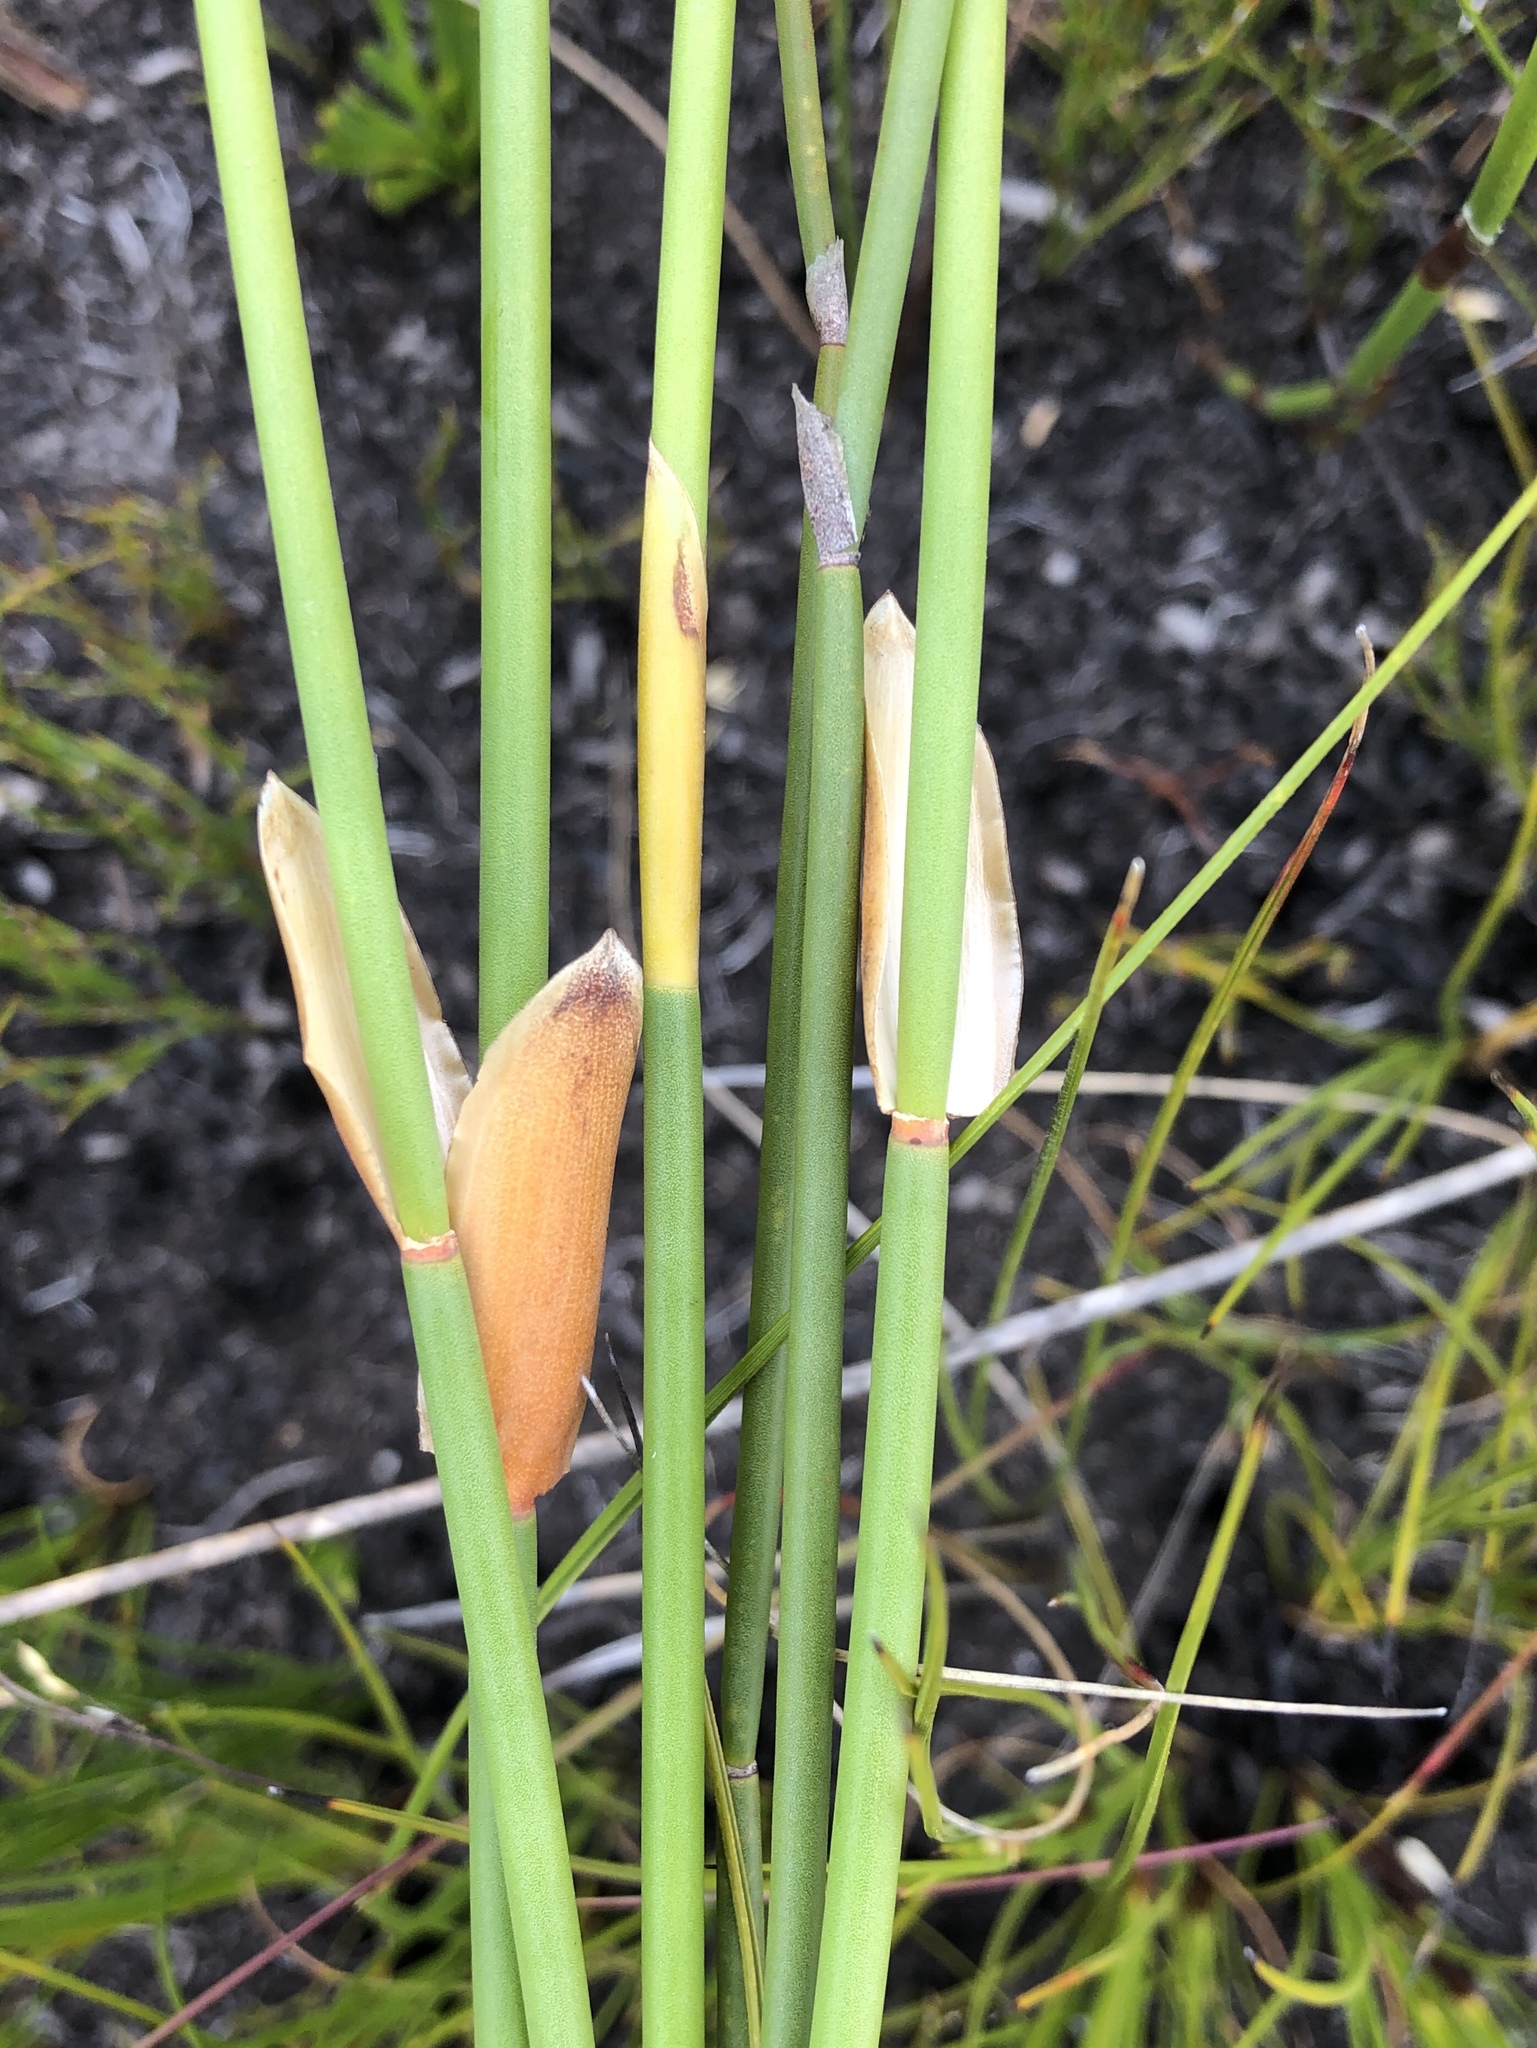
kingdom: Plantae
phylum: Tracheophyta
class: Liliopsida
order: Poales
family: Restionaceae
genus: Elegia
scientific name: Elegia juncea
